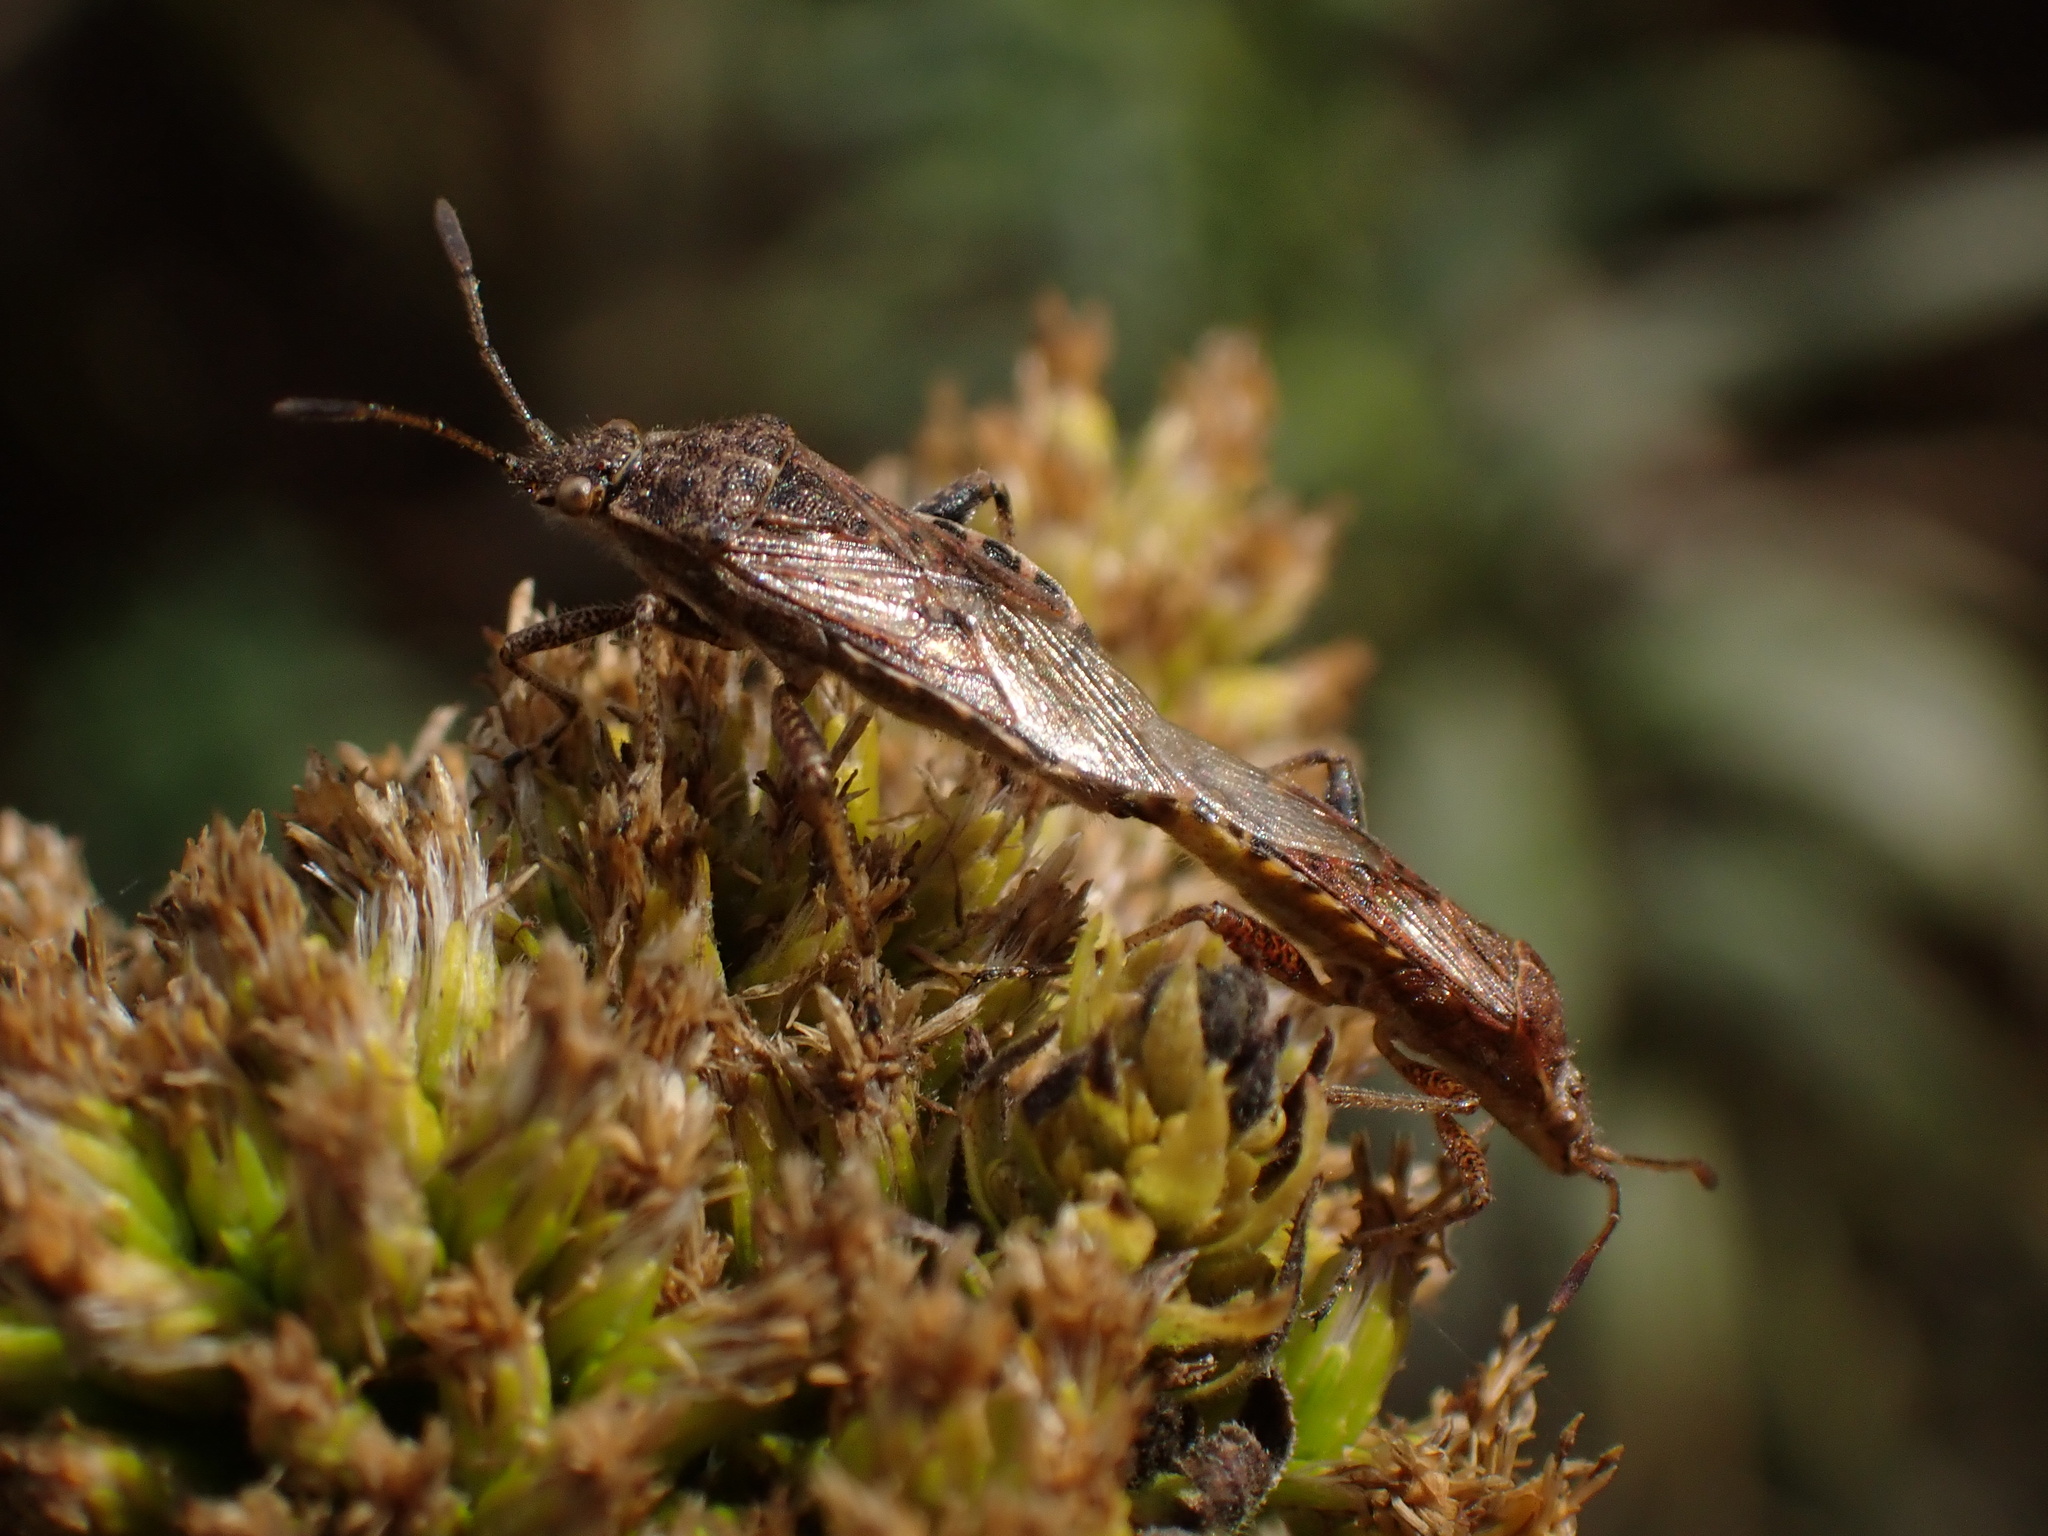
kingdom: Animalia
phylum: Arthropoda
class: Insecta
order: Hemiptera
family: Rhopalidae
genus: Stictopleurus
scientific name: Stictopleurus punctatonervosus
